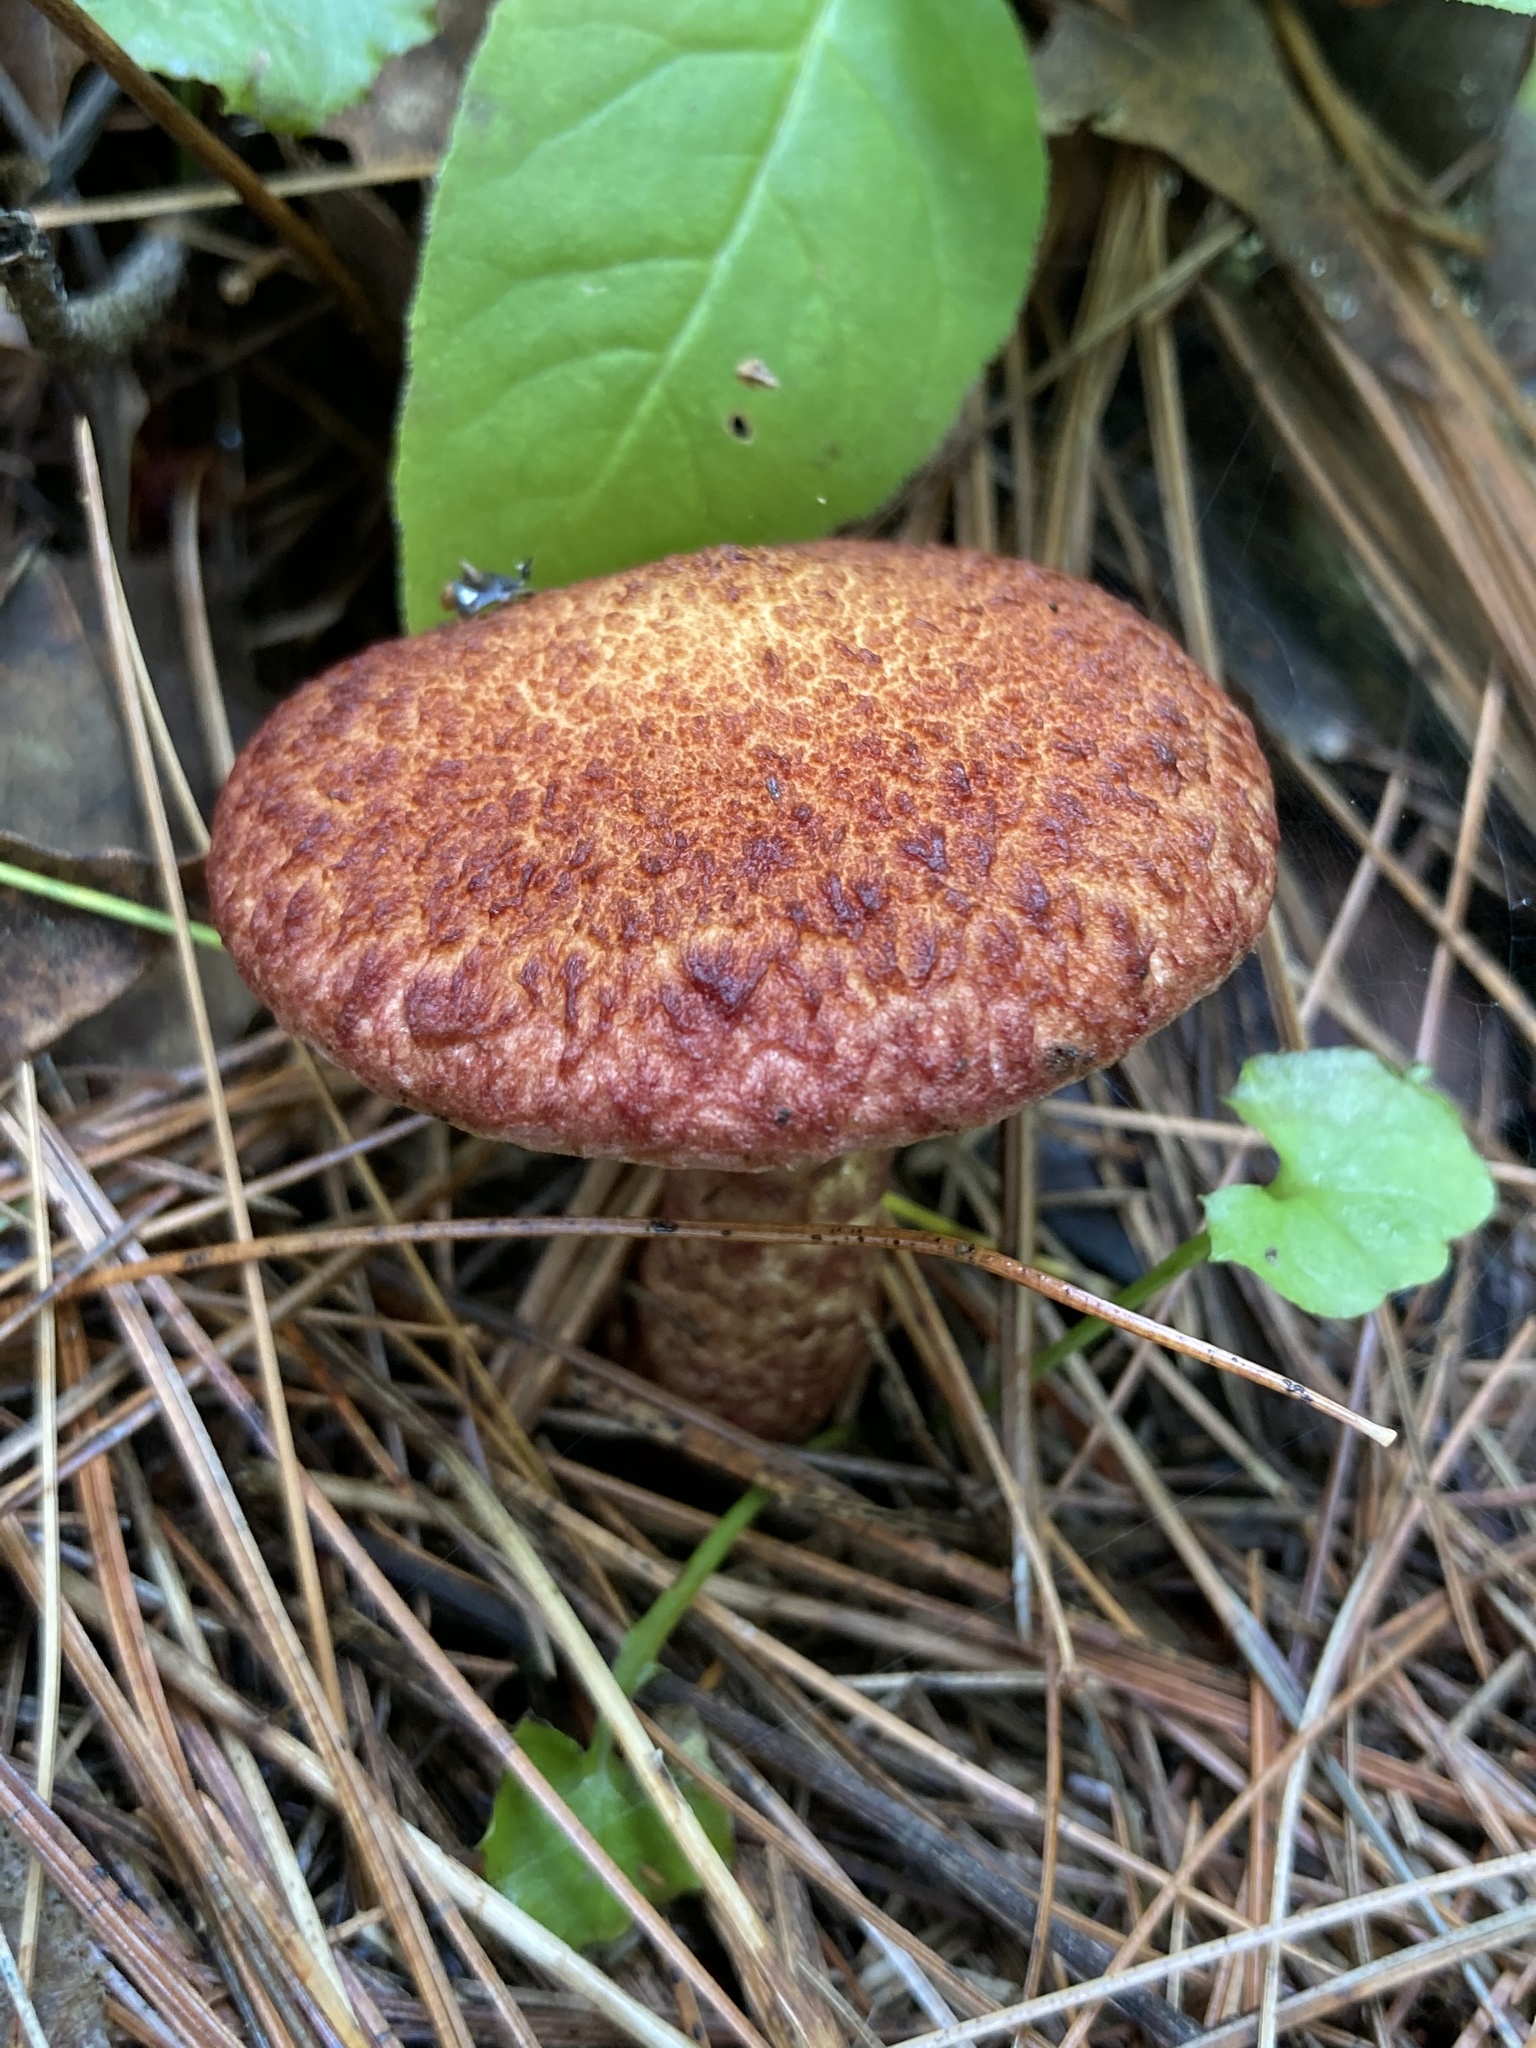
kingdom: Fungi
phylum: Basidiomycota
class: Agaricomycetes
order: Boletales
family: Suillaceae
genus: Suillus
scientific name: Suillus spraguei
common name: Painted suillus
